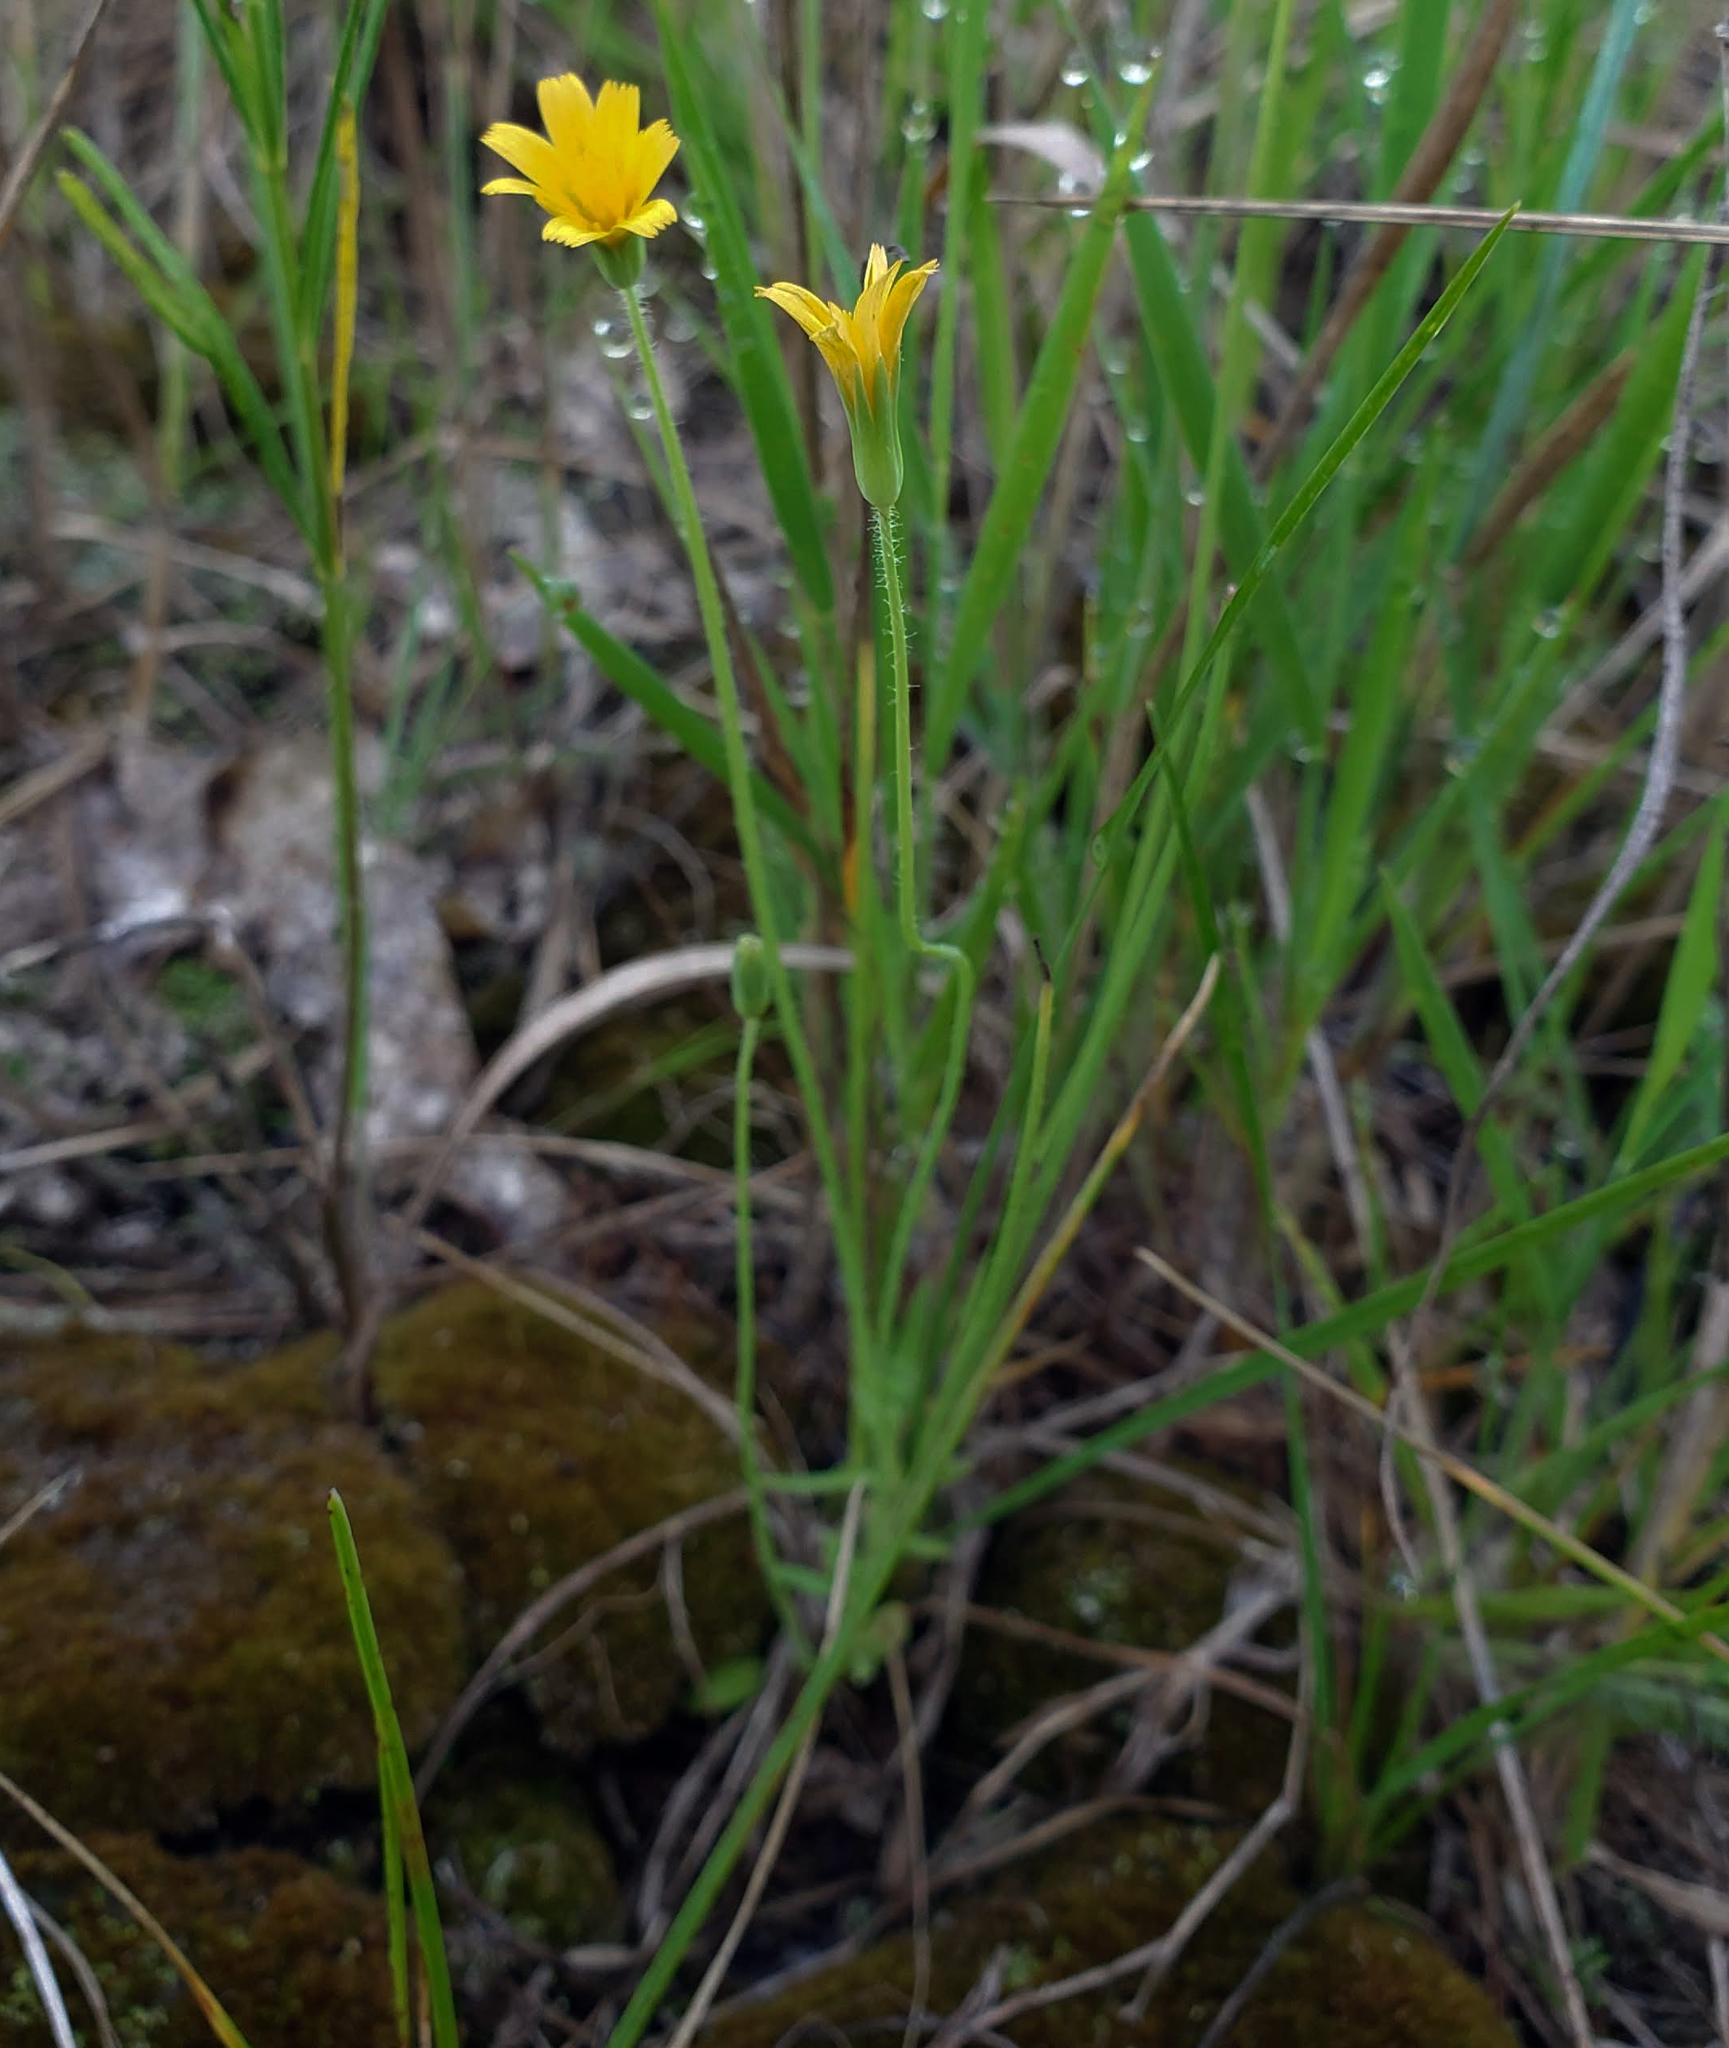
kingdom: Plantae
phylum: Tracheophyta
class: Magnoliopsida
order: Asterales
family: Asteraceae
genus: Krigia
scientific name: Krigia virginica
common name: Virginia dwarf-dandelion
